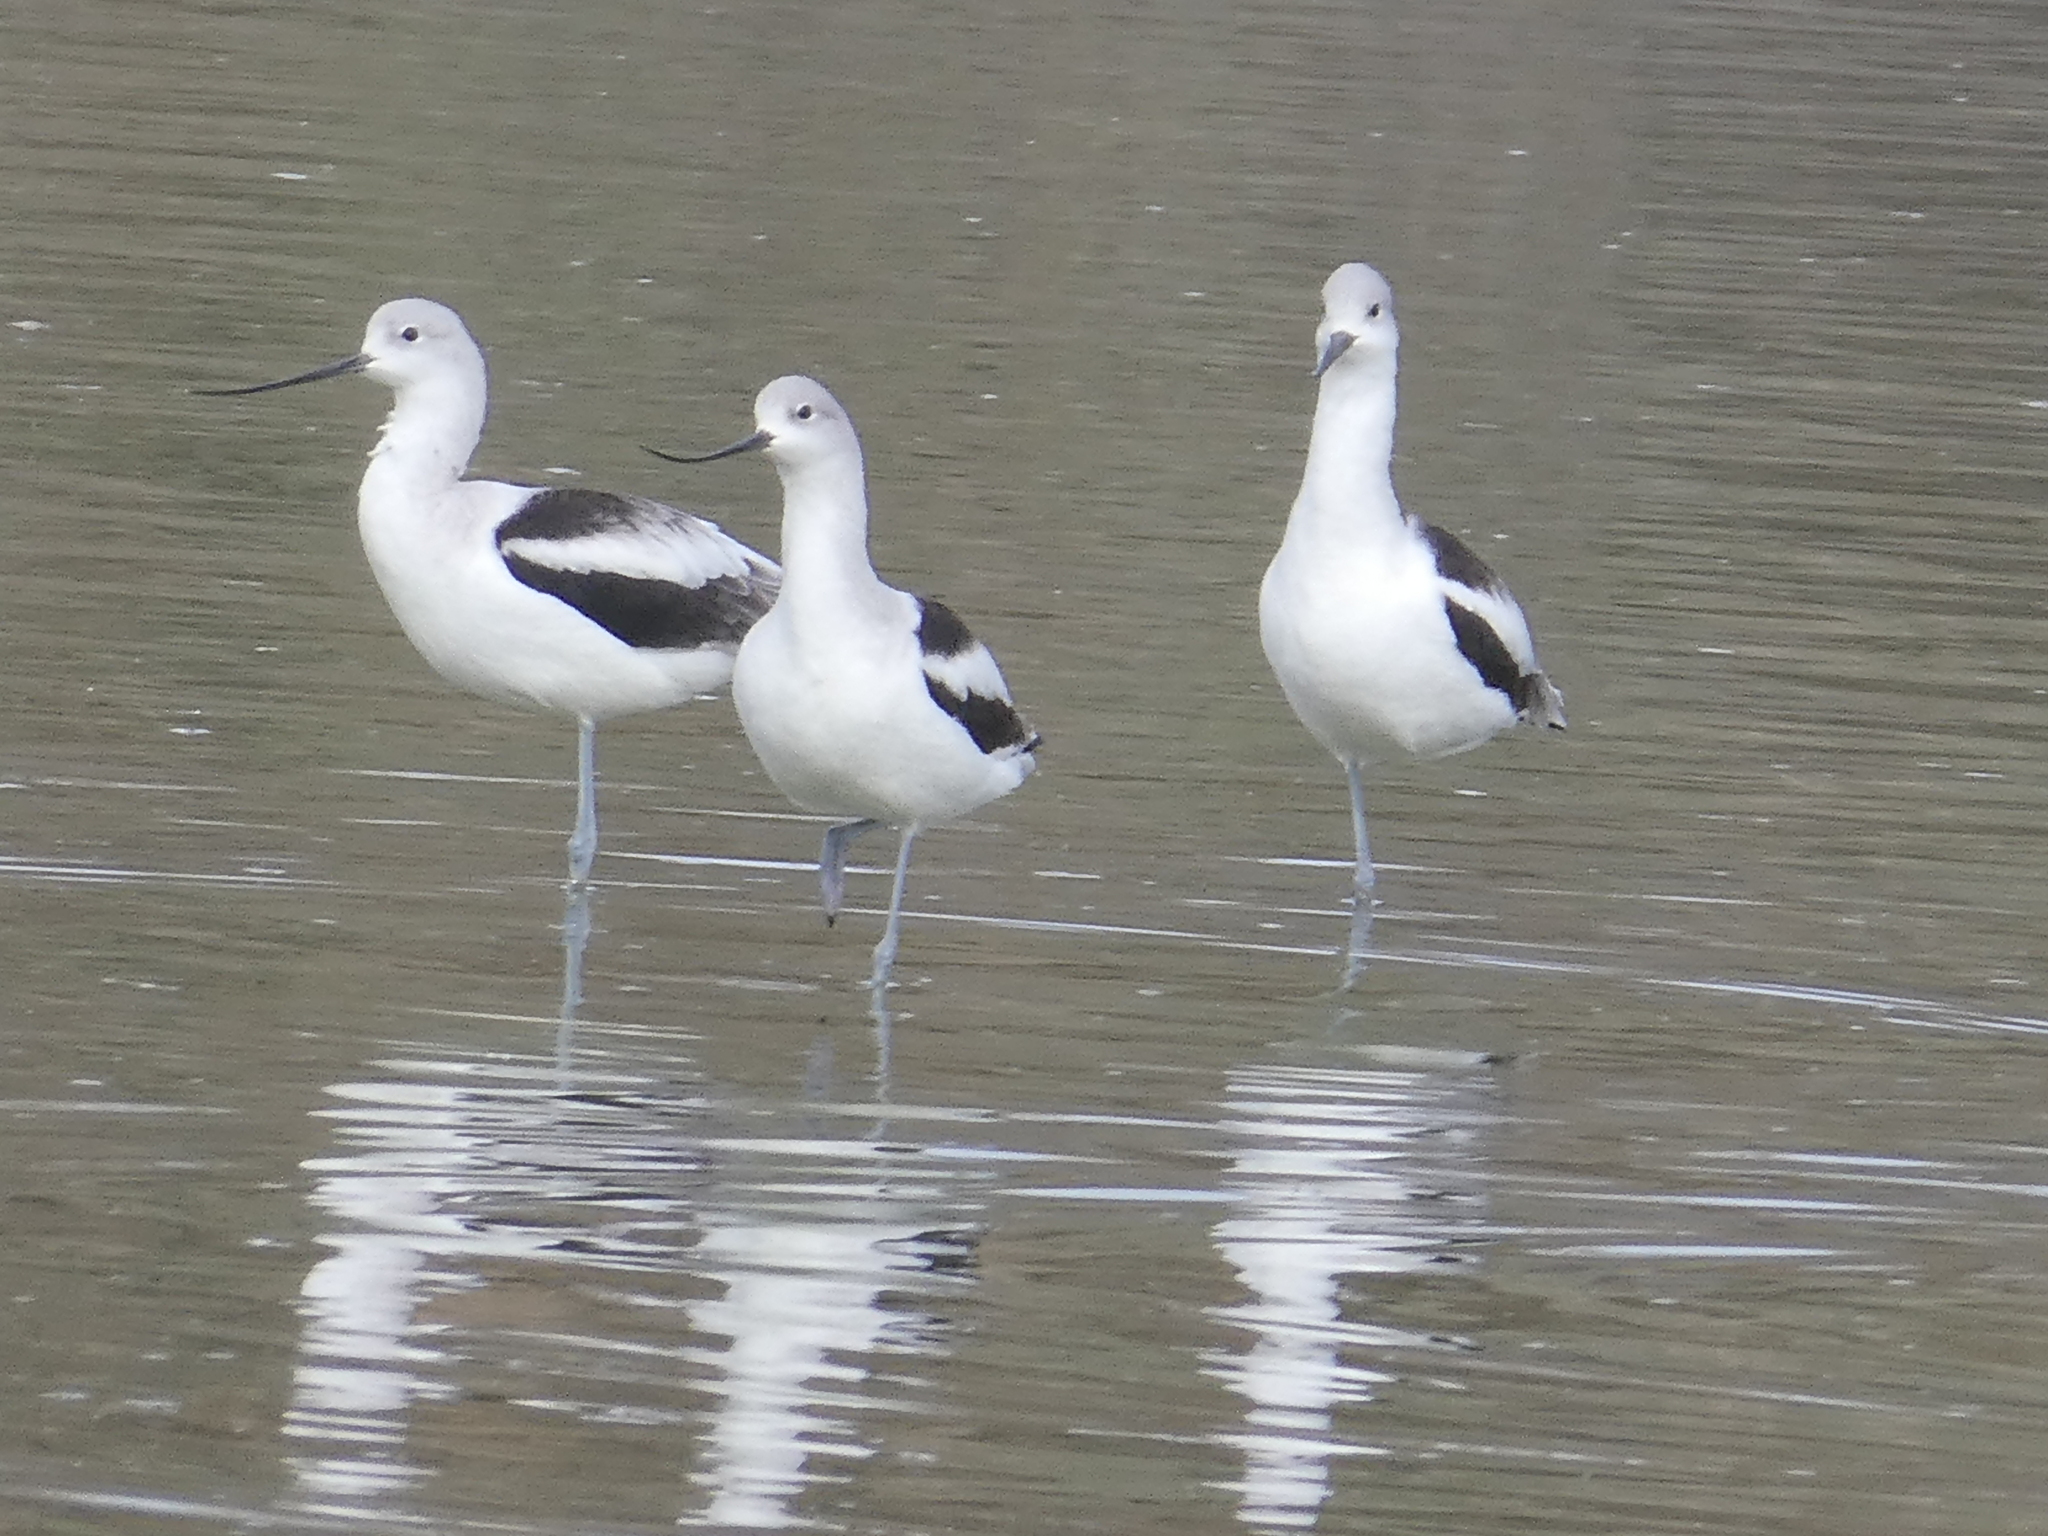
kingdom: Animalia
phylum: Chordata
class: Aves
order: Charadriiformes
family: Recurvirostridae
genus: Recurvirostra
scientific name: Recurvirostra americana
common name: American avocet
